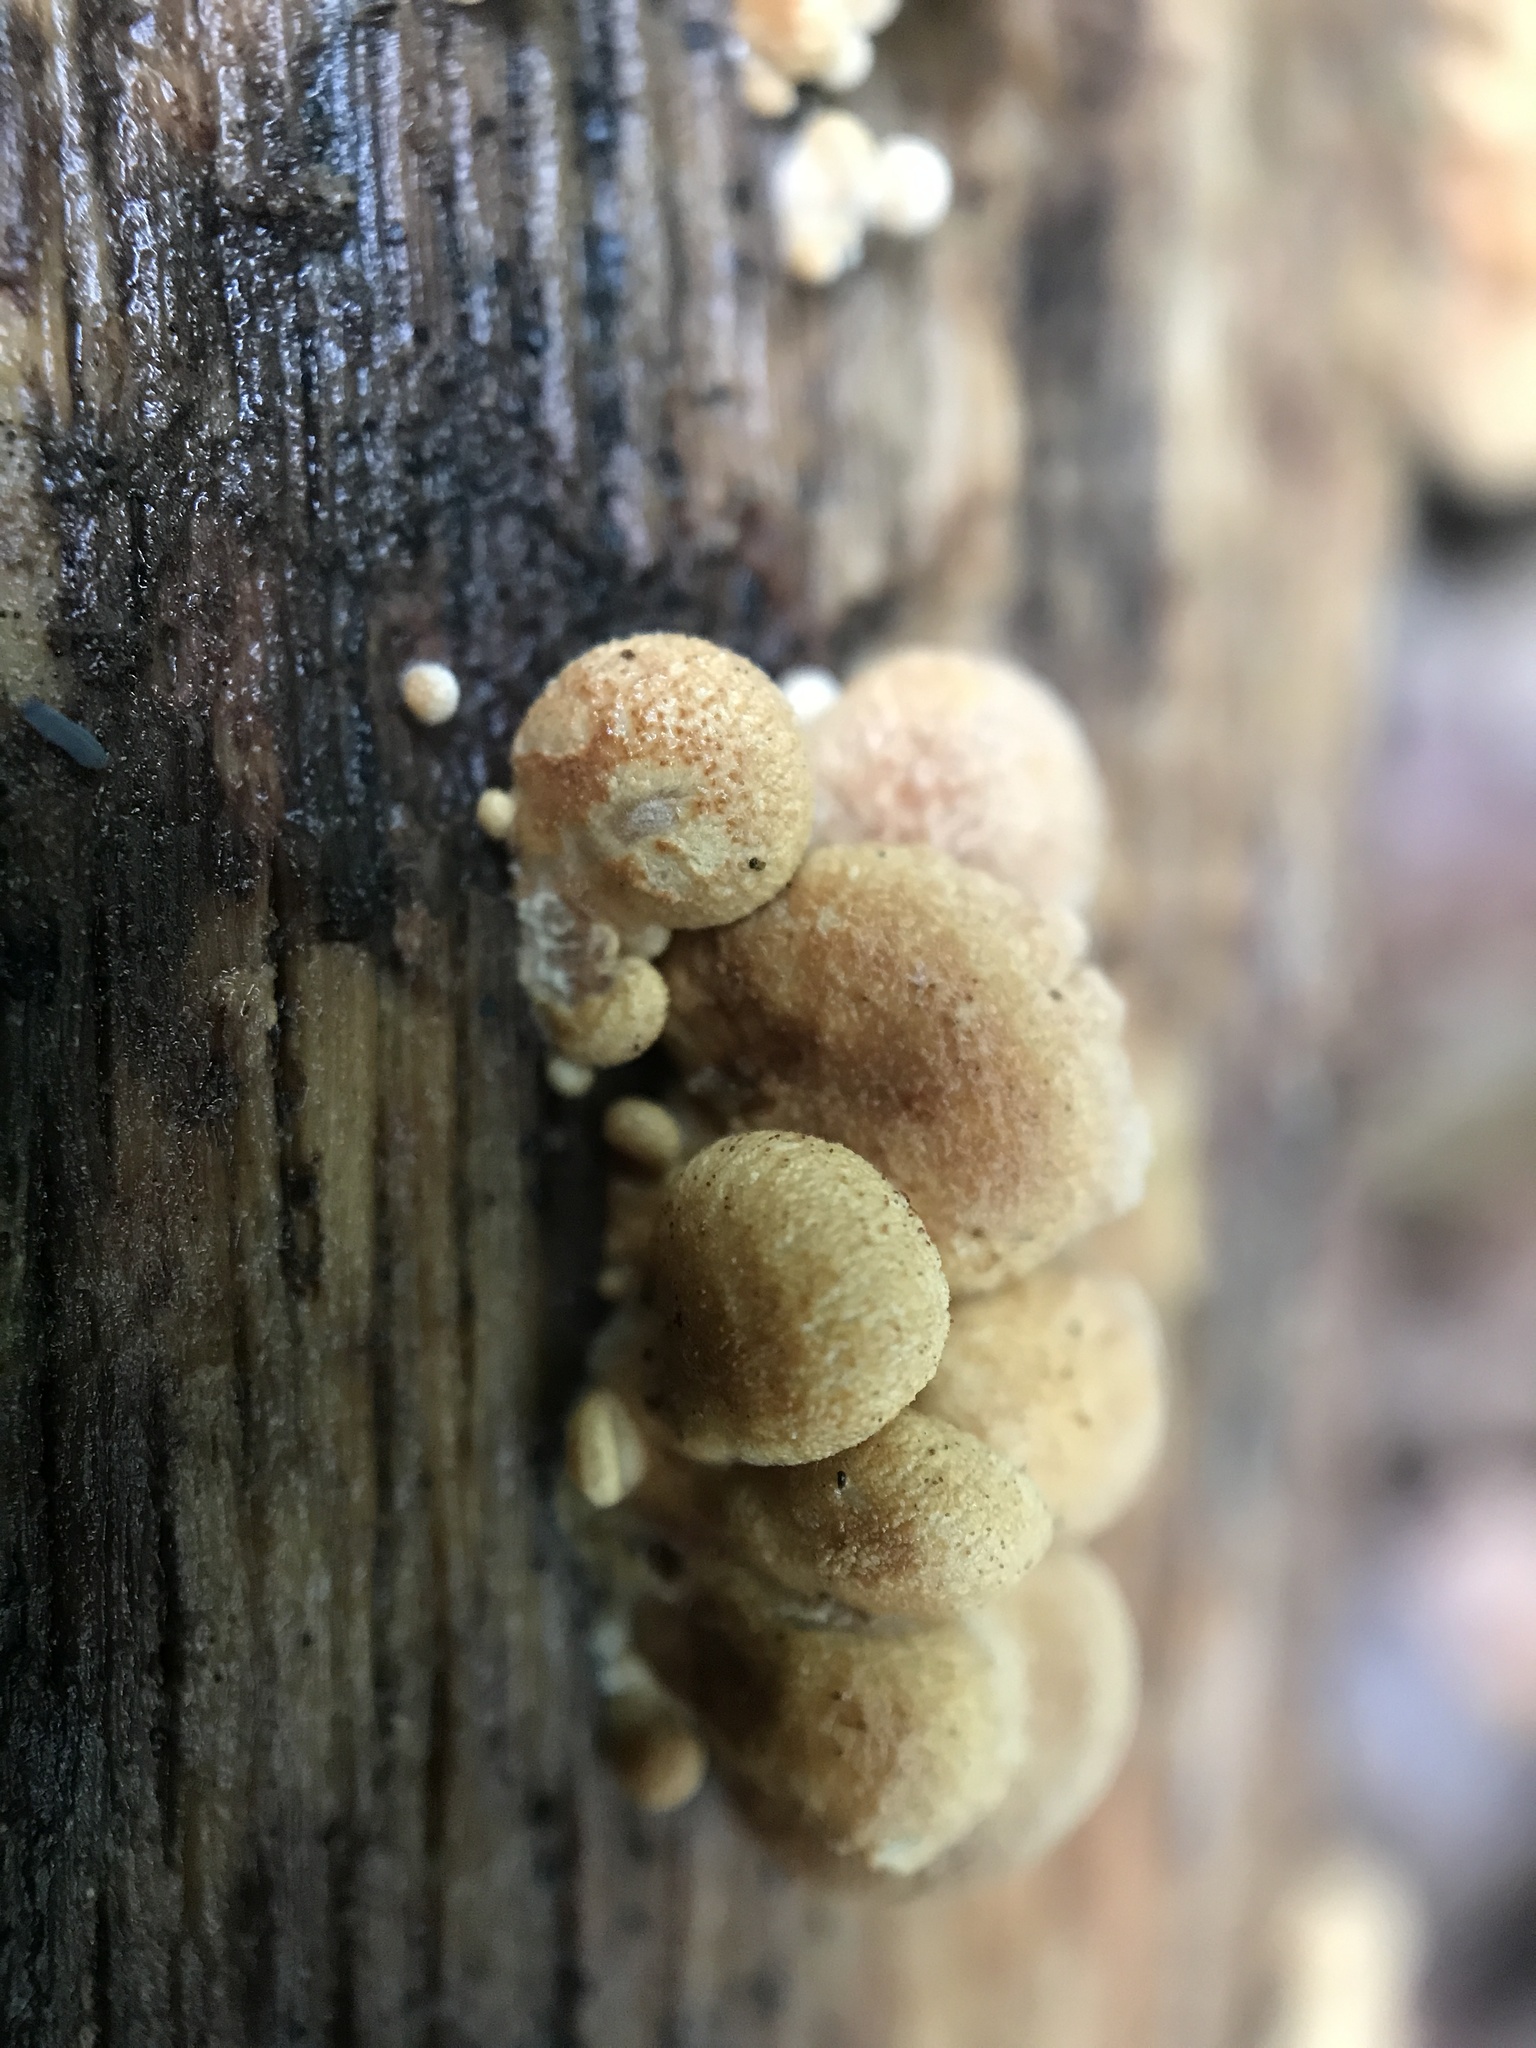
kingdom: Fungi
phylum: Basidiomycota
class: Agaricomycetes
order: Agaricales
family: Mycenaceae
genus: Panellus
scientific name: Panellus stipticus
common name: Bitter oysterling
